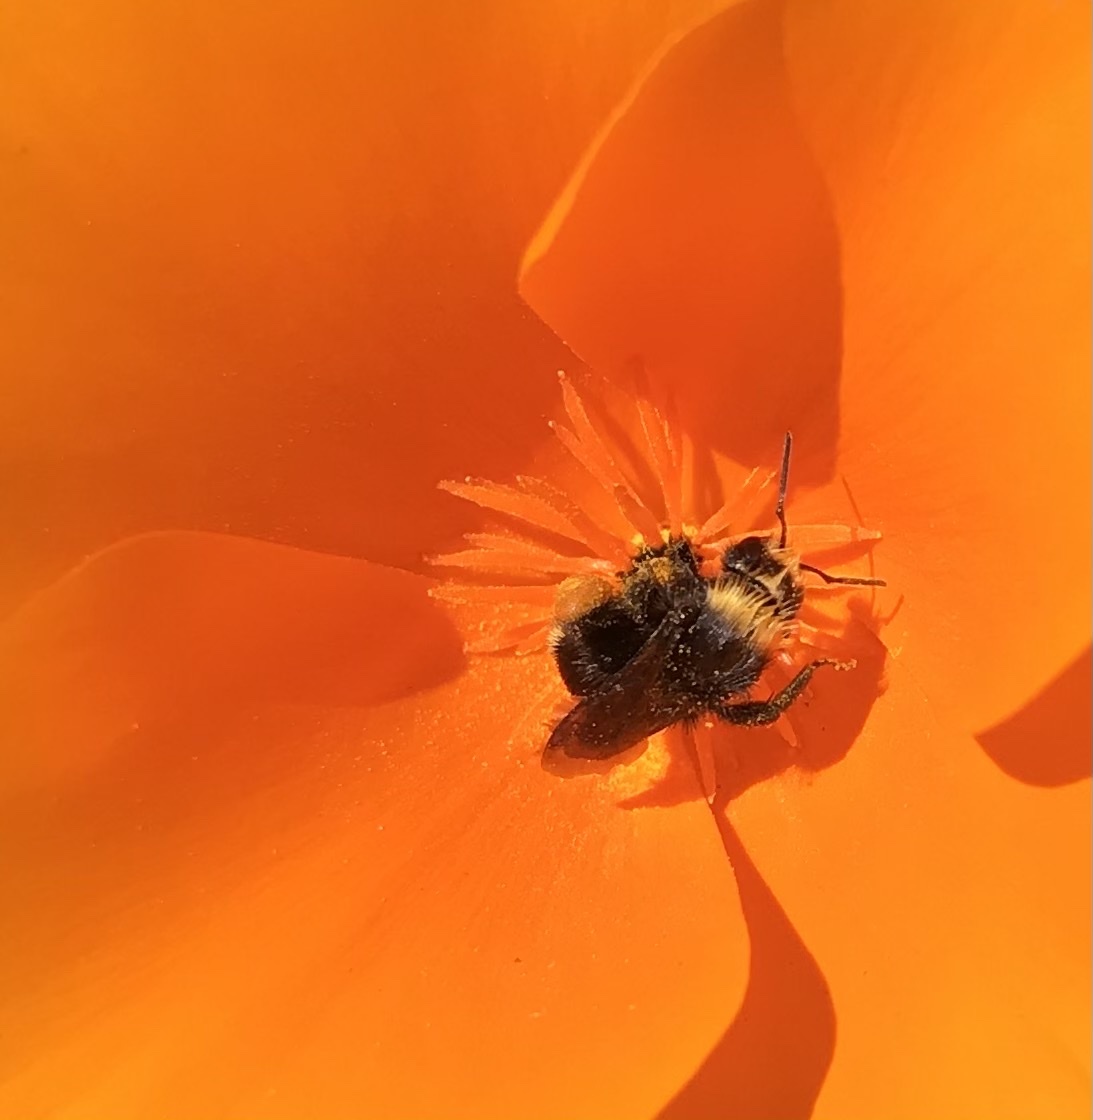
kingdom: Animalia
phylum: Arthropoda
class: Insecta
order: Hymenoptera
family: Apidae
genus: Pyrobombus
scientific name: Pyrobombus
